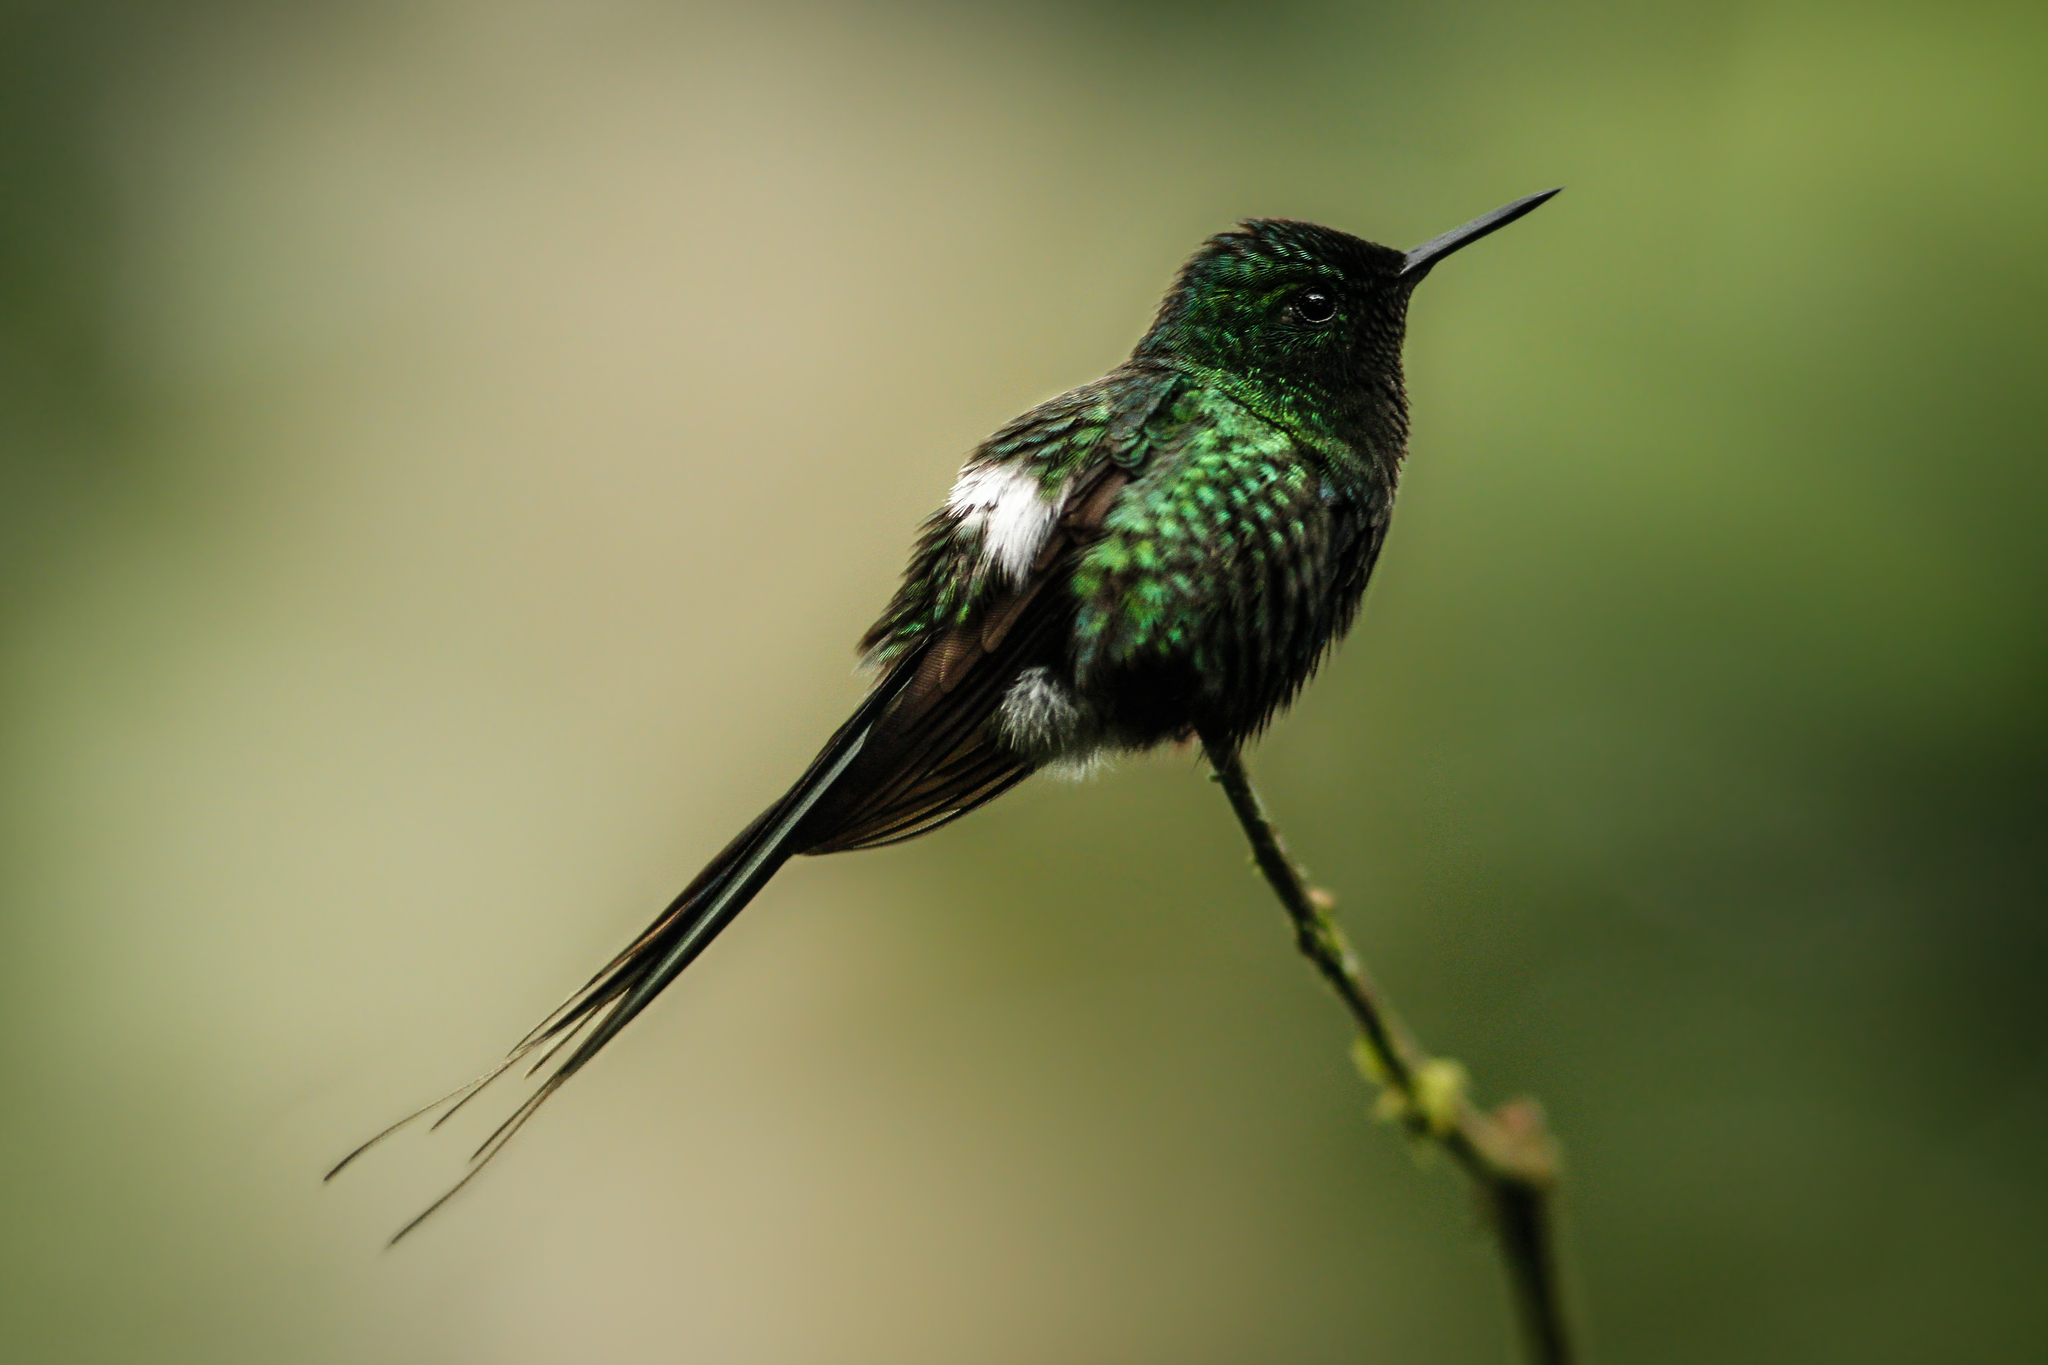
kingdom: Animalia
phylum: Chordata
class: Aves
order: Apodiformes
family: Trochilidae
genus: Discosura
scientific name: Discosura conversii
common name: Green thorntail
